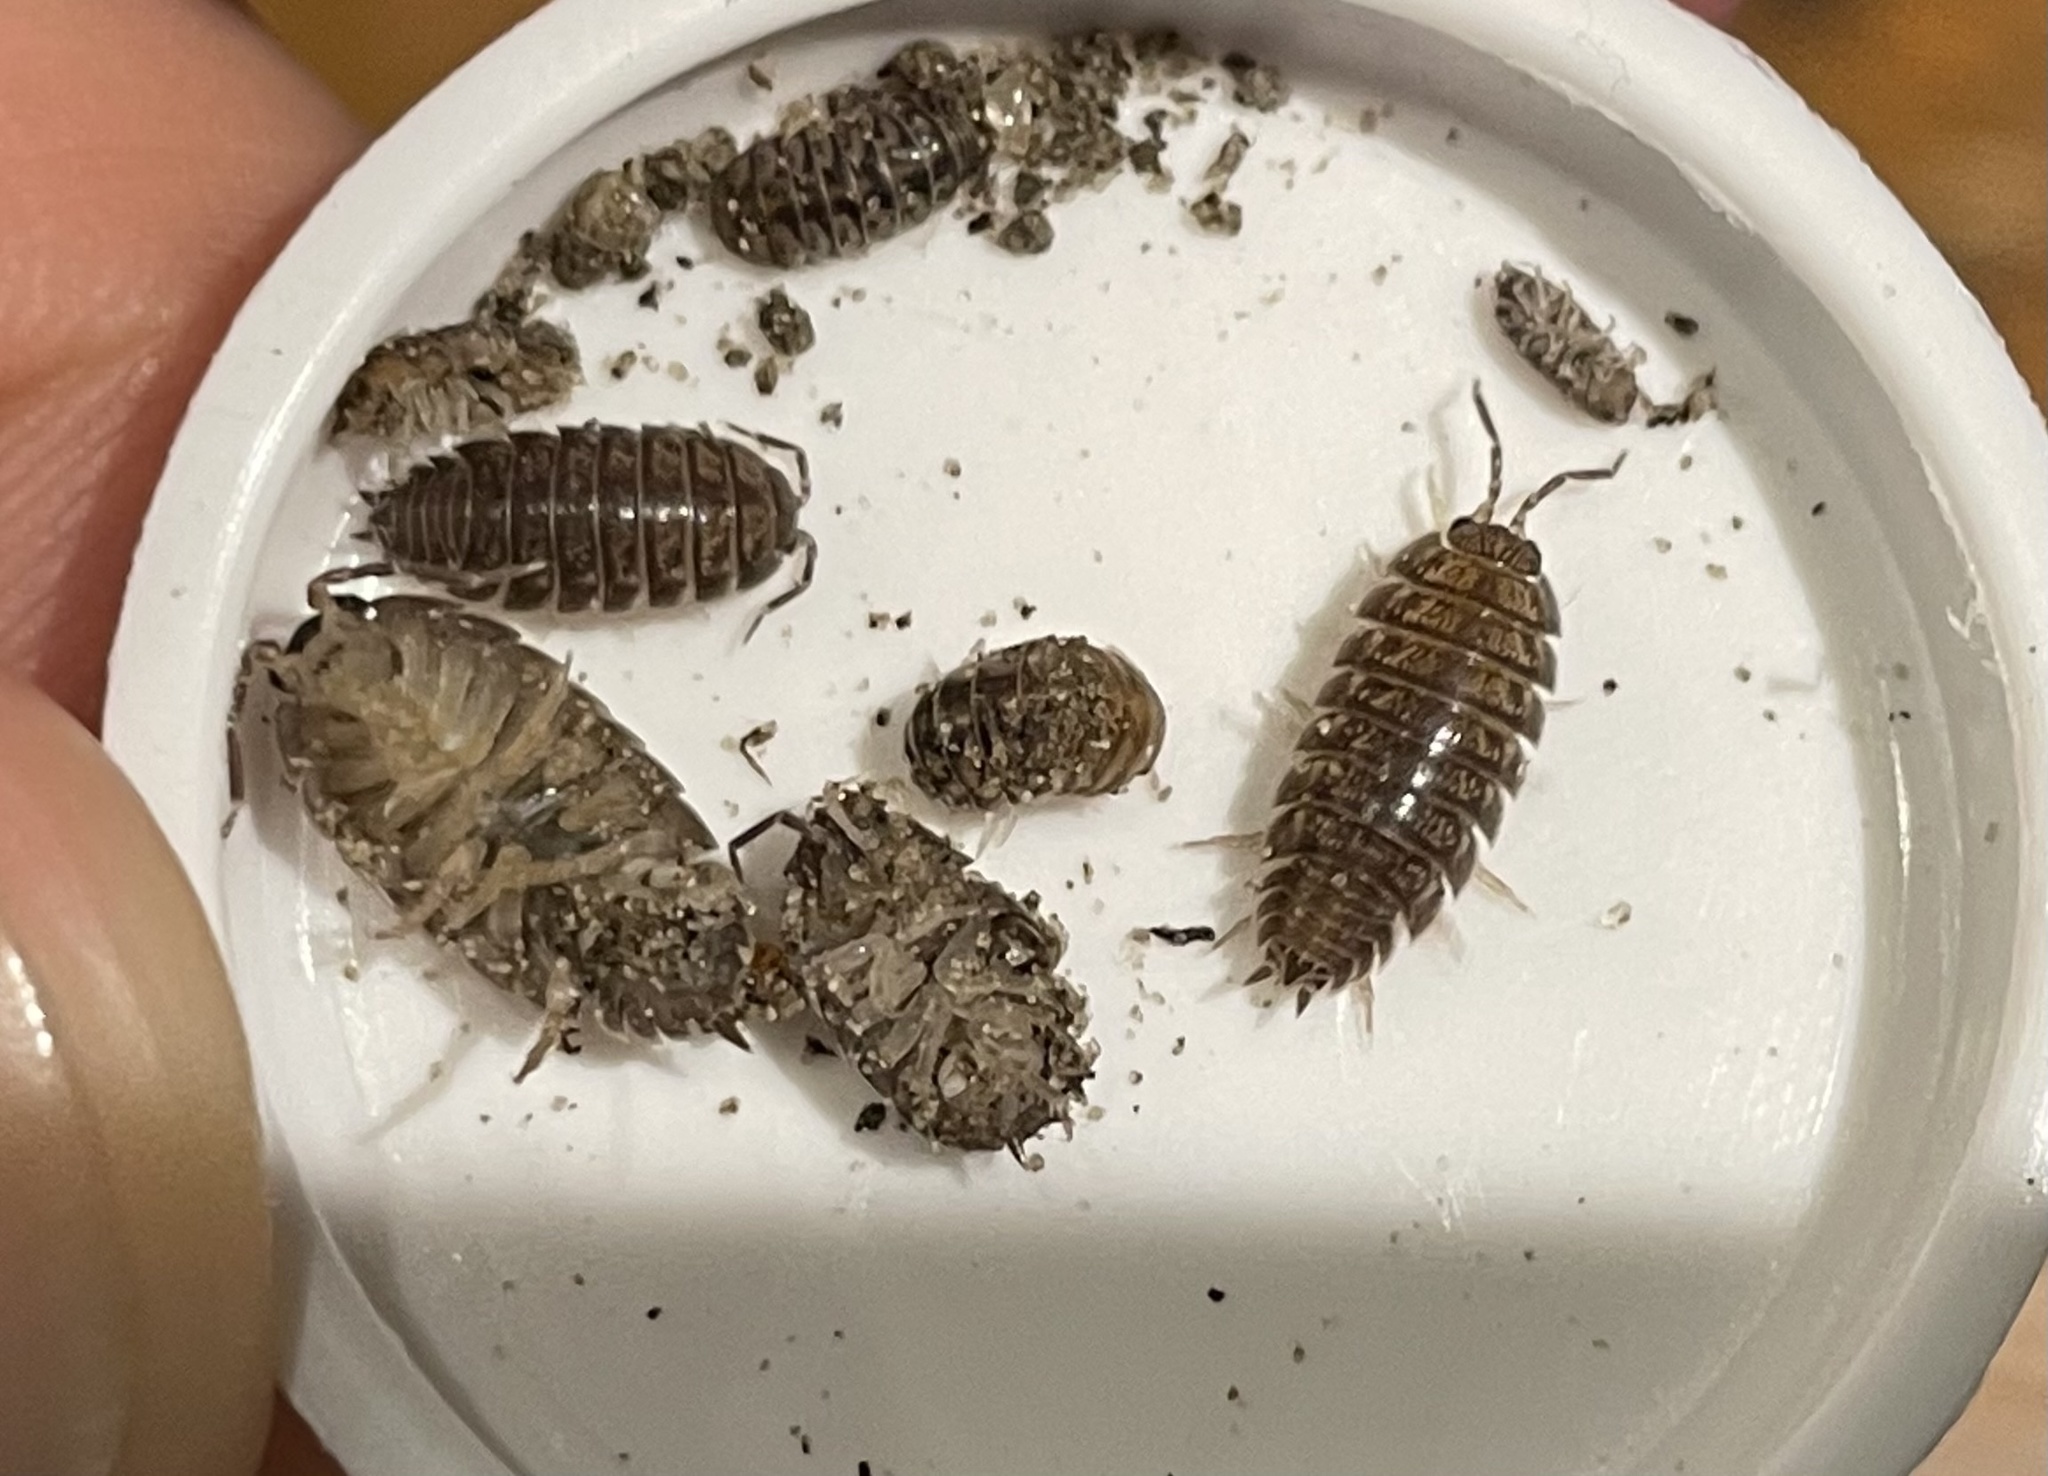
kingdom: Animalia
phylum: Arthropoda
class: Malacostraca
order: Isopoda
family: Porcellionidae
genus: Porcellio
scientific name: Porcellio laevis
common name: Swift woodlouse
